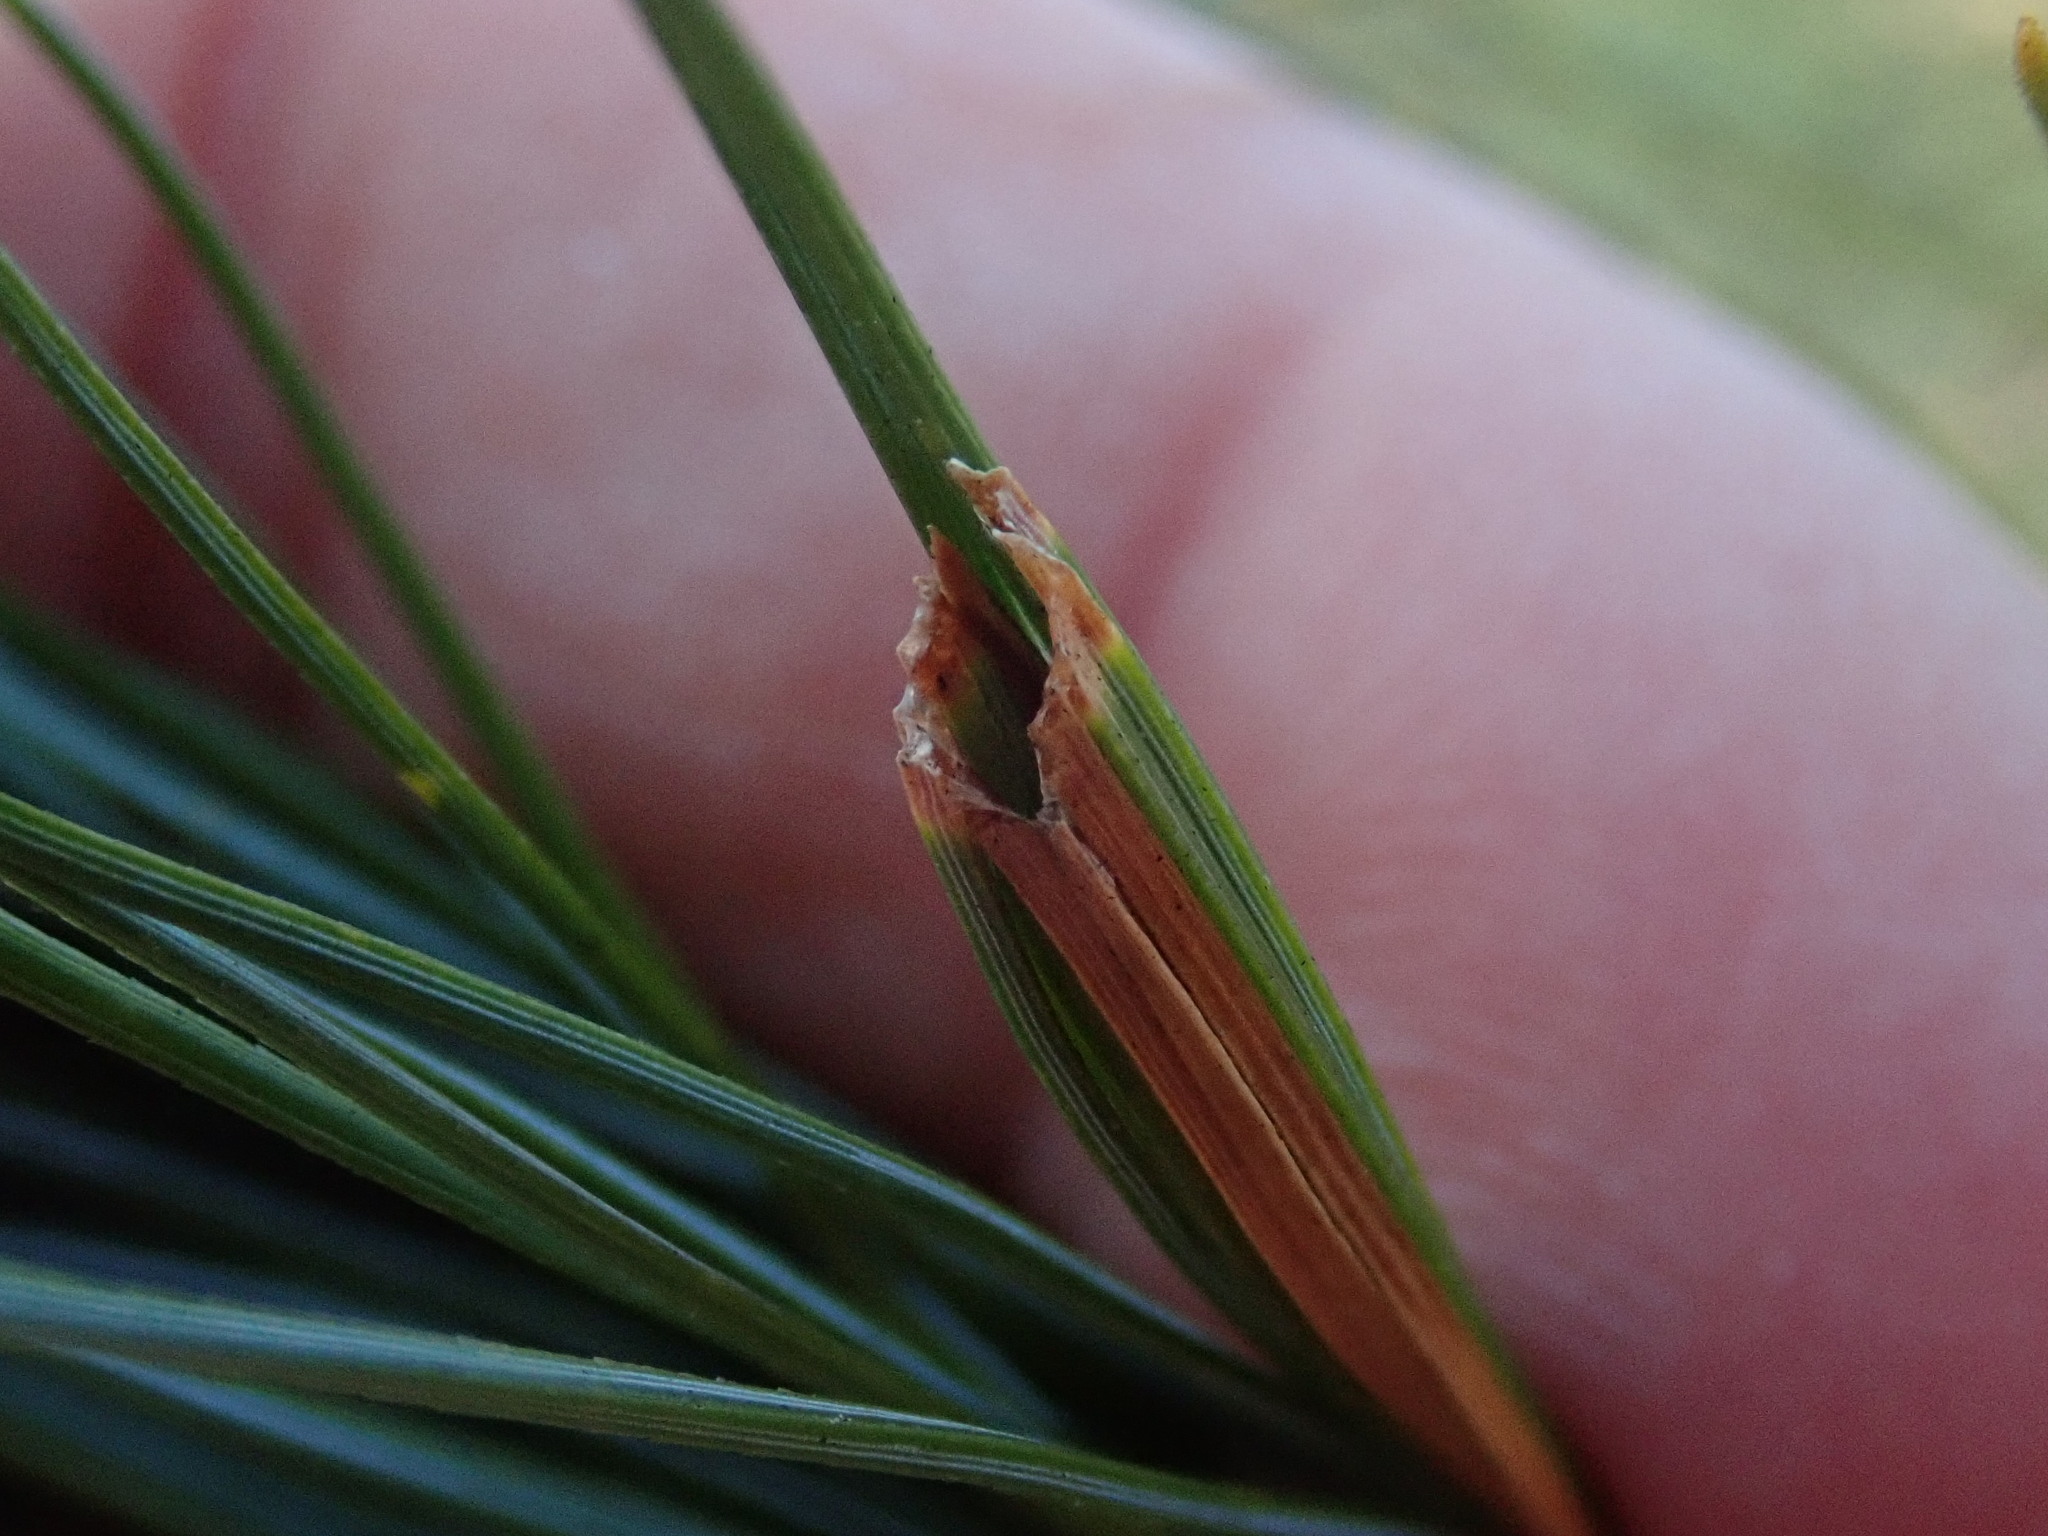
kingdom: Animalia
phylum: Arthropoda
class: Insecta
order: Lepidoptera
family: Tortricidae
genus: Argyrotaenia
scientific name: Argyrotaenia pinatubana
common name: Pine tube moth
